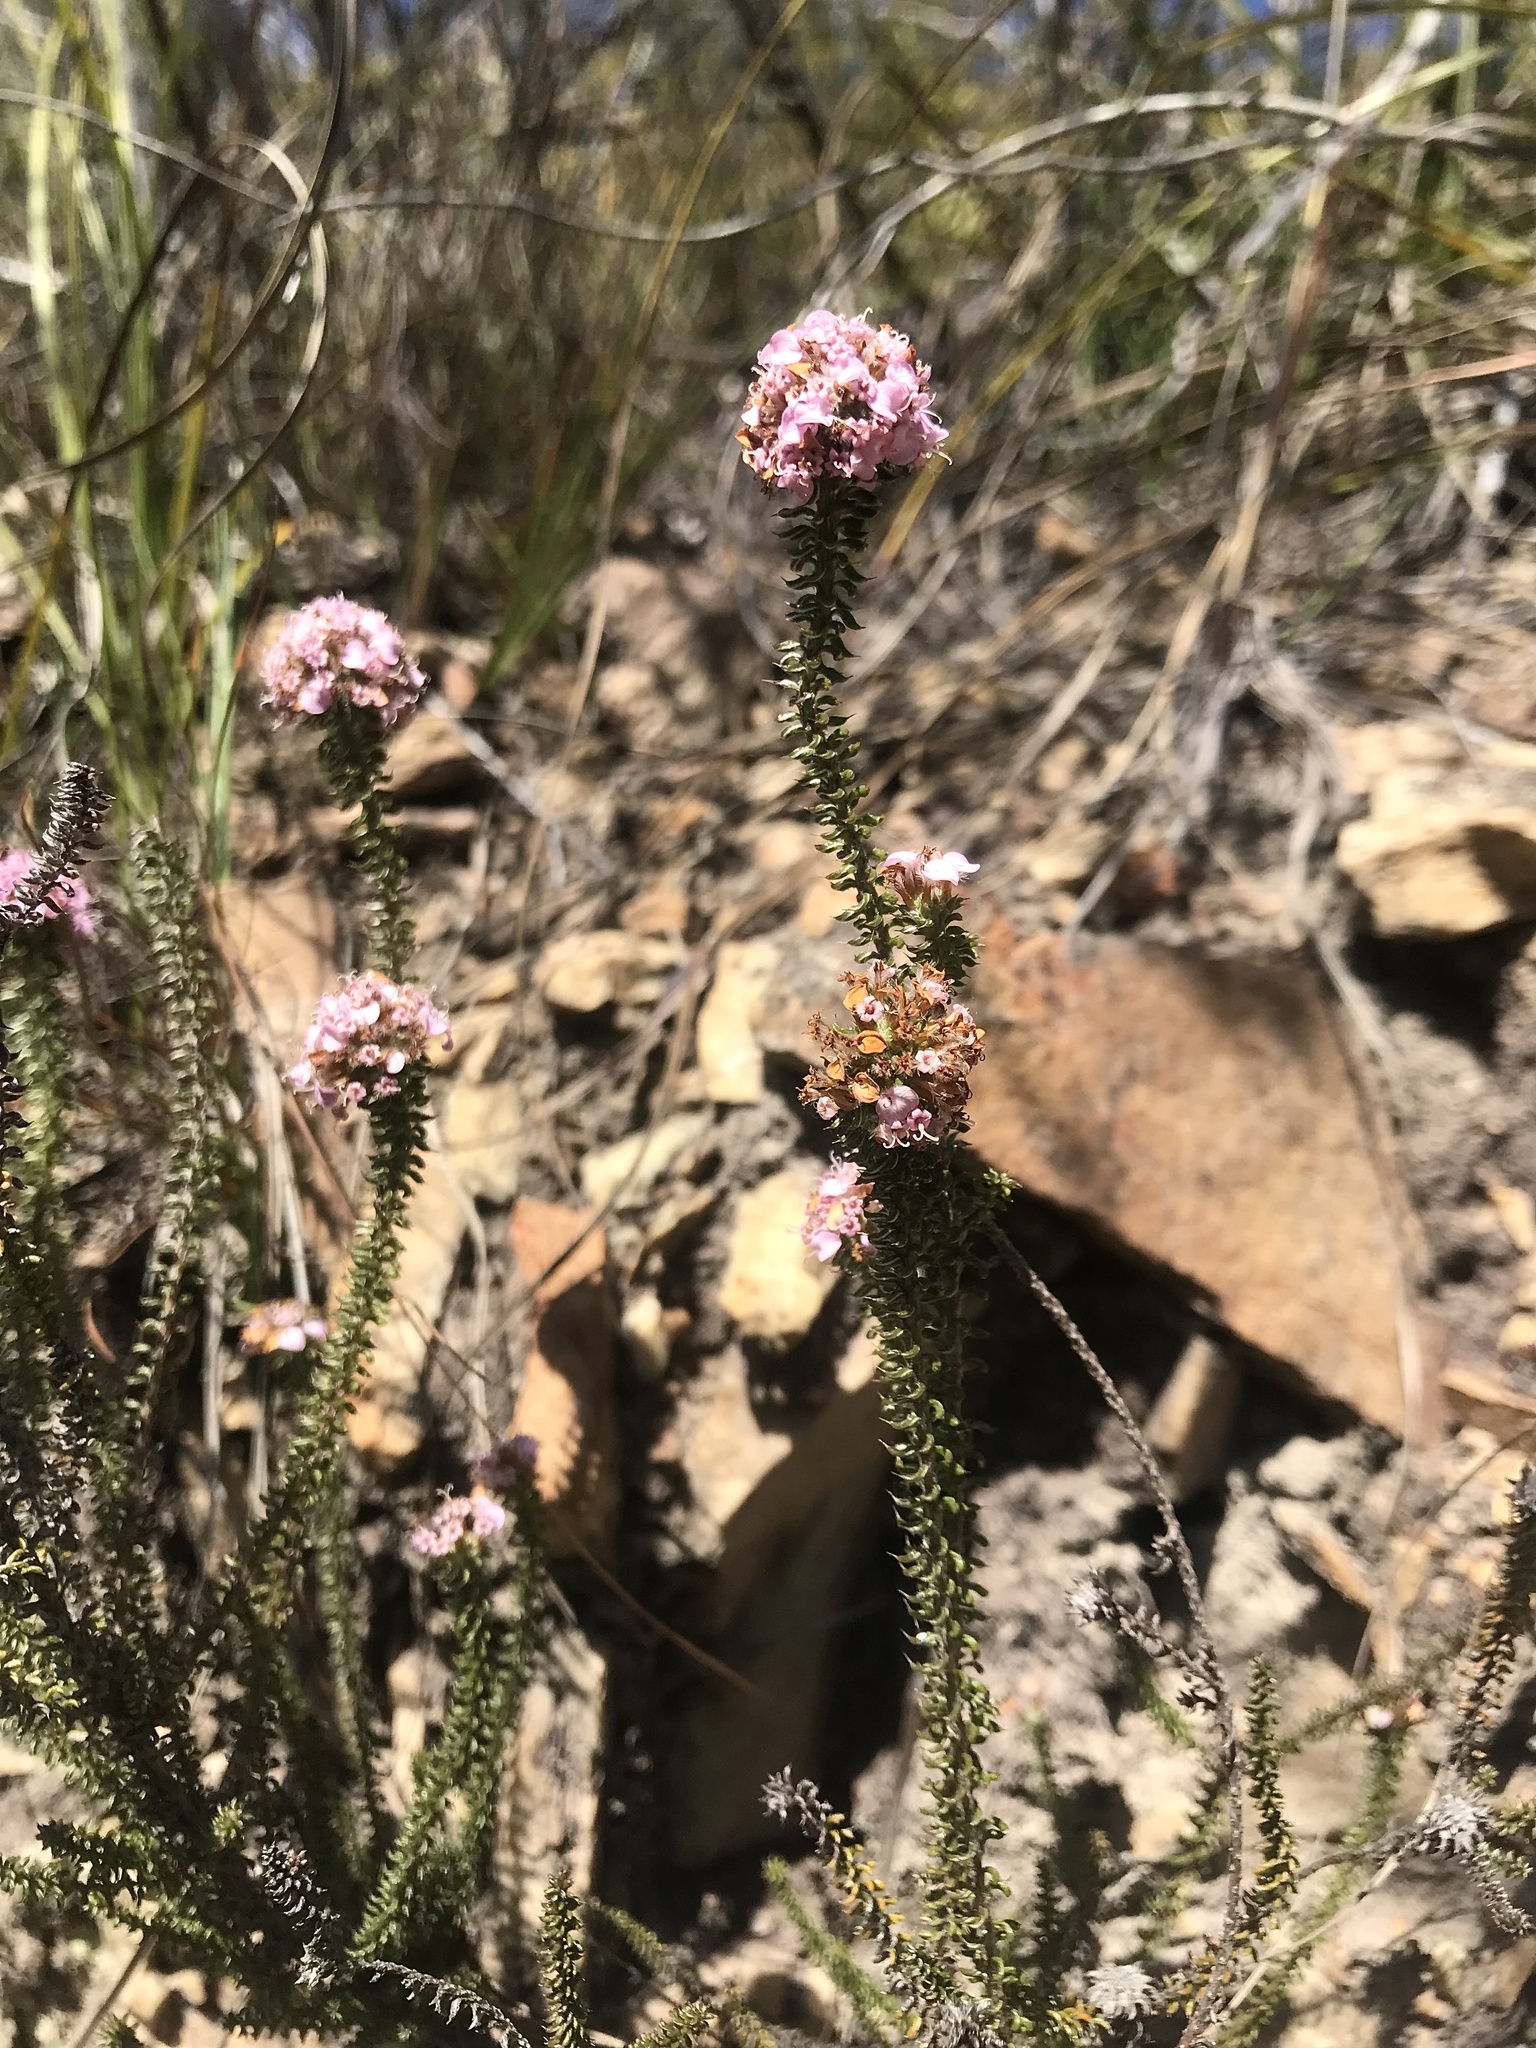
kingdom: Plantae
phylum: Tracheophyta
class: Magnoliopsida
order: Asterales
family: Asteraceae
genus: Disparago
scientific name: Disparago tortilis
